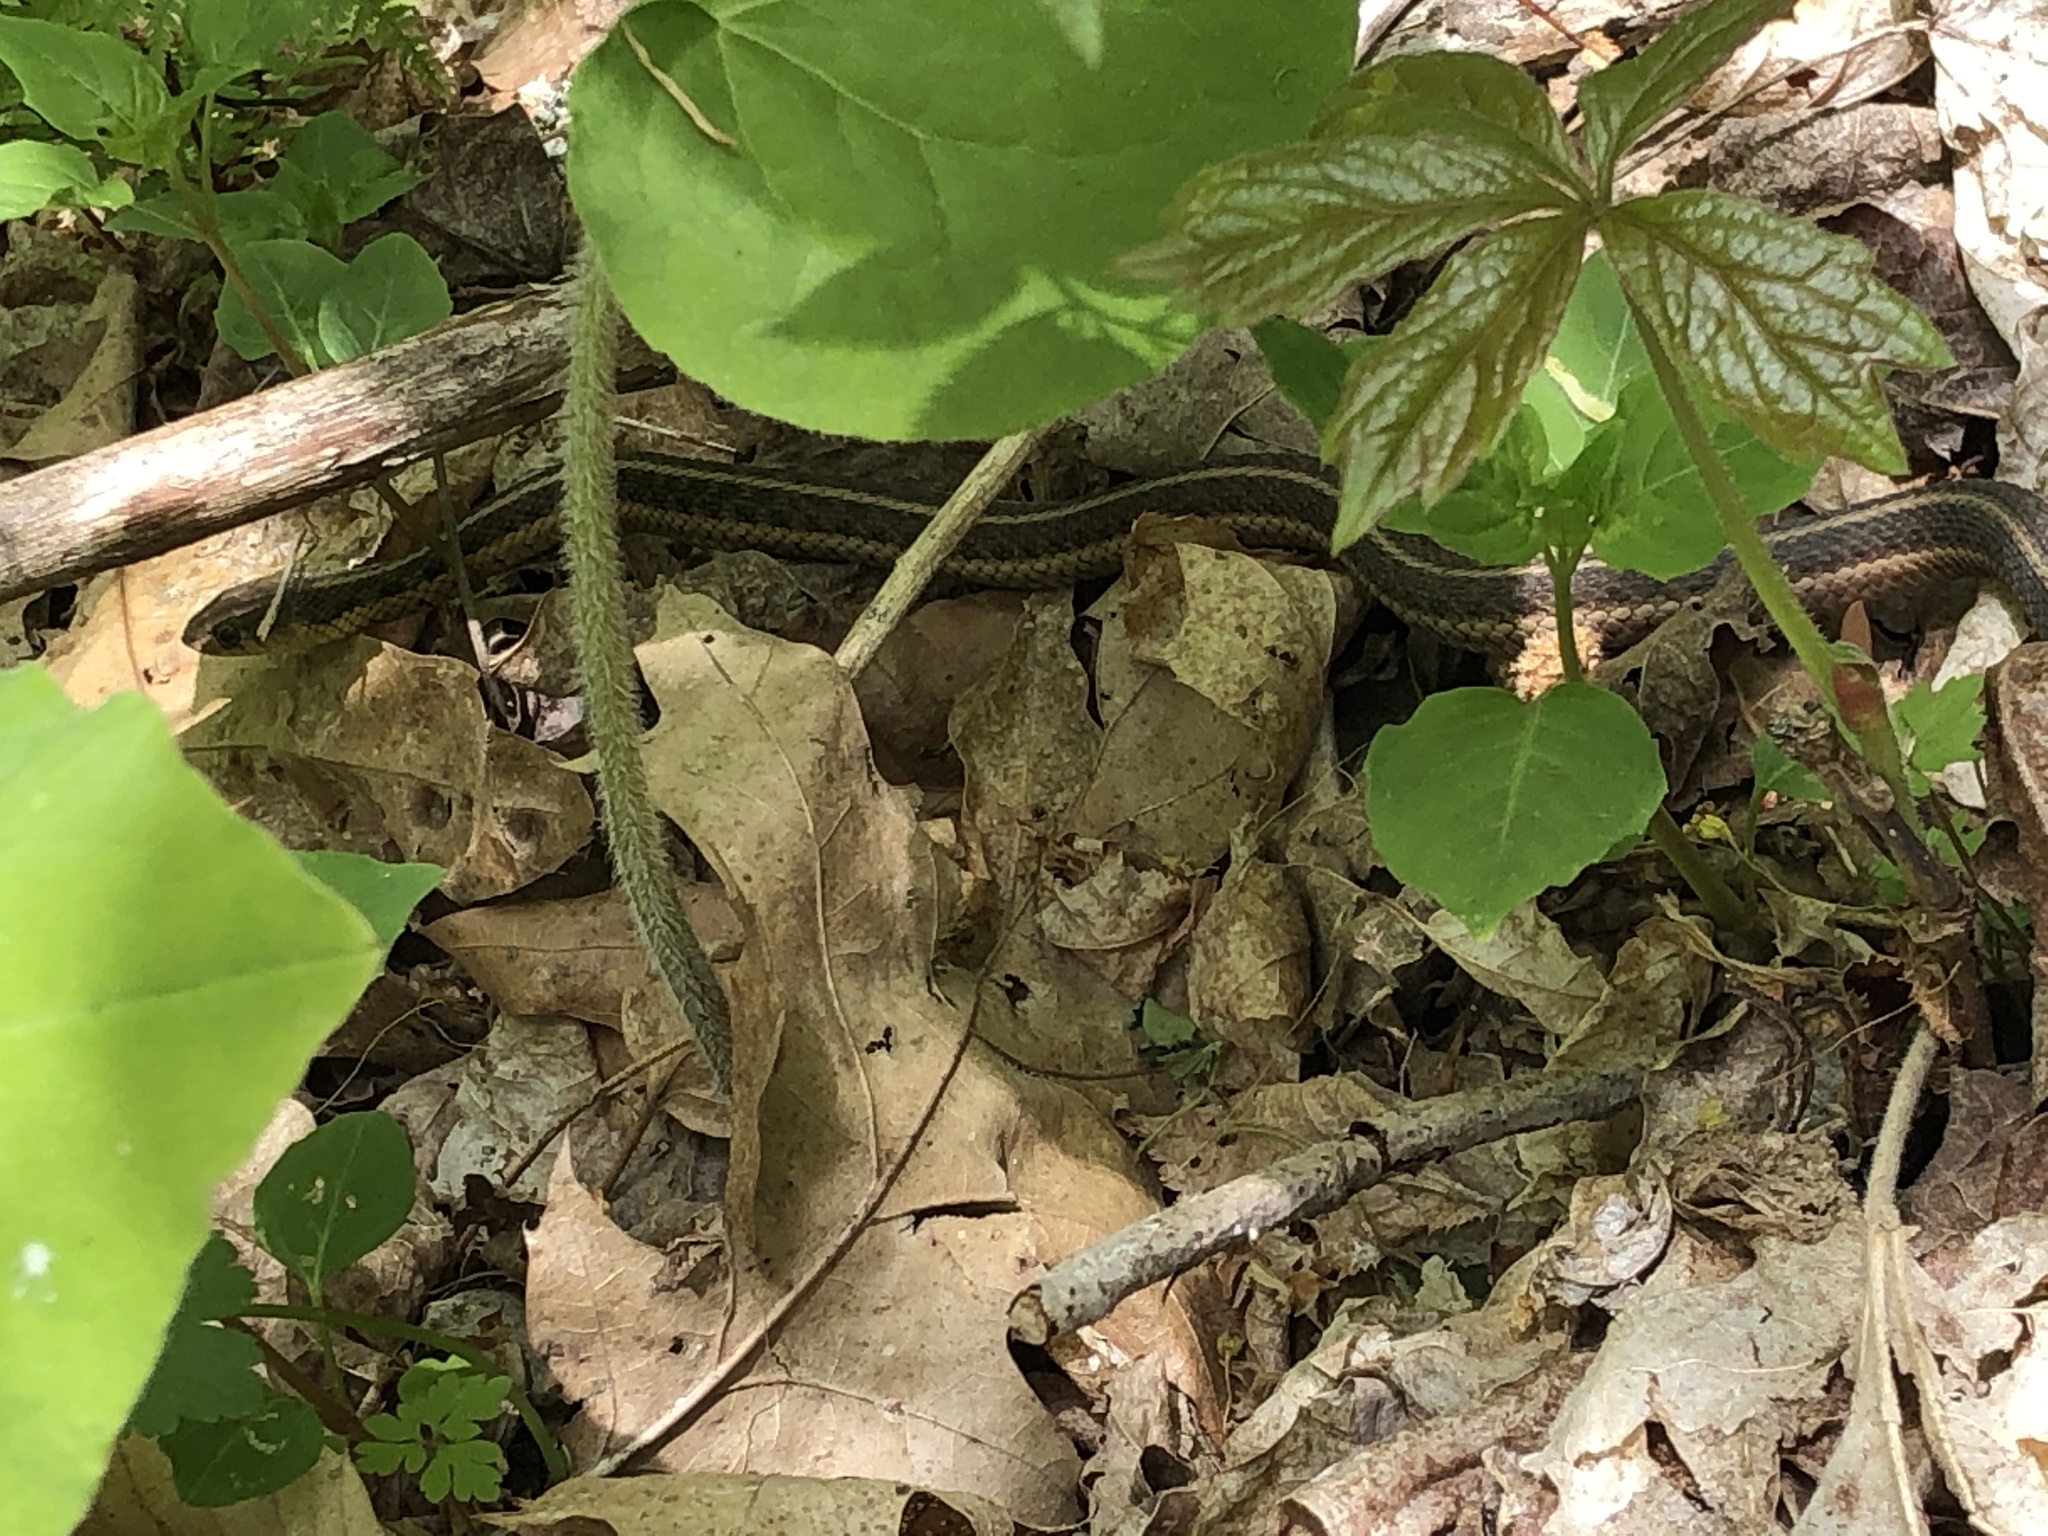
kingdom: Animalia
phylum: Chordata
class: Squamata
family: Colubridae
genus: Thamnophis
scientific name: Thamnophis sirtalis
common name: Common garter snake
